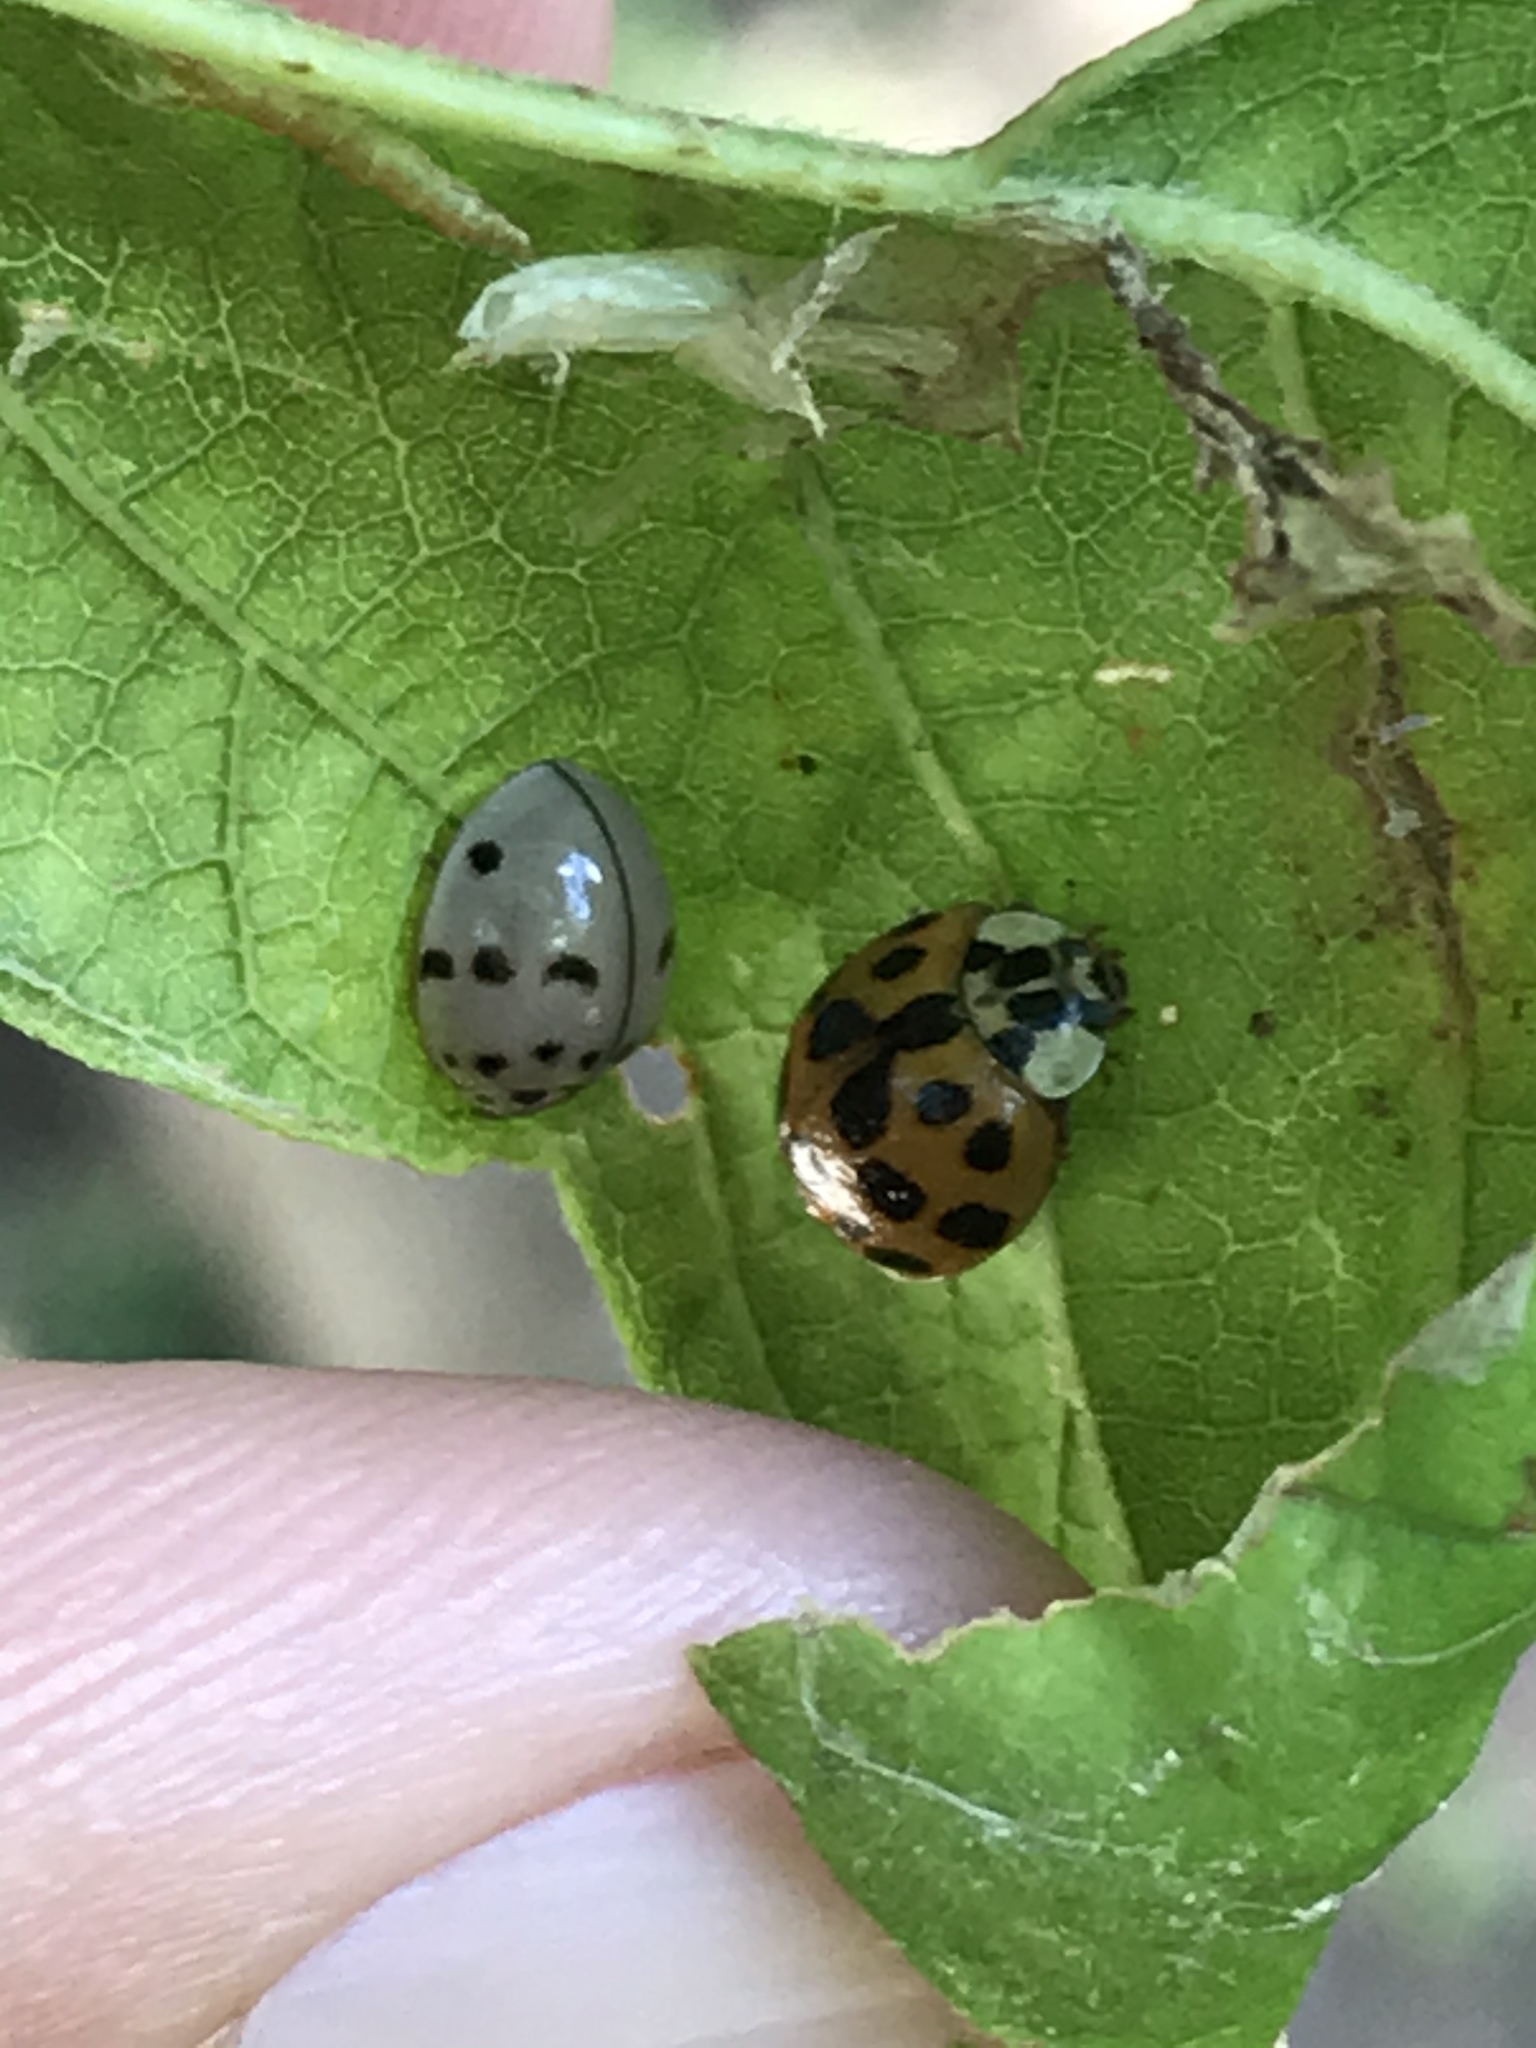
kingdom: Animalia
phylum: Arthropoda
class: Insecta
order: Coleoptera
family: Coccinellidae
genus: Olla
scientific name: Olla v-nigrum
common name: Ashy gray lady beetle
